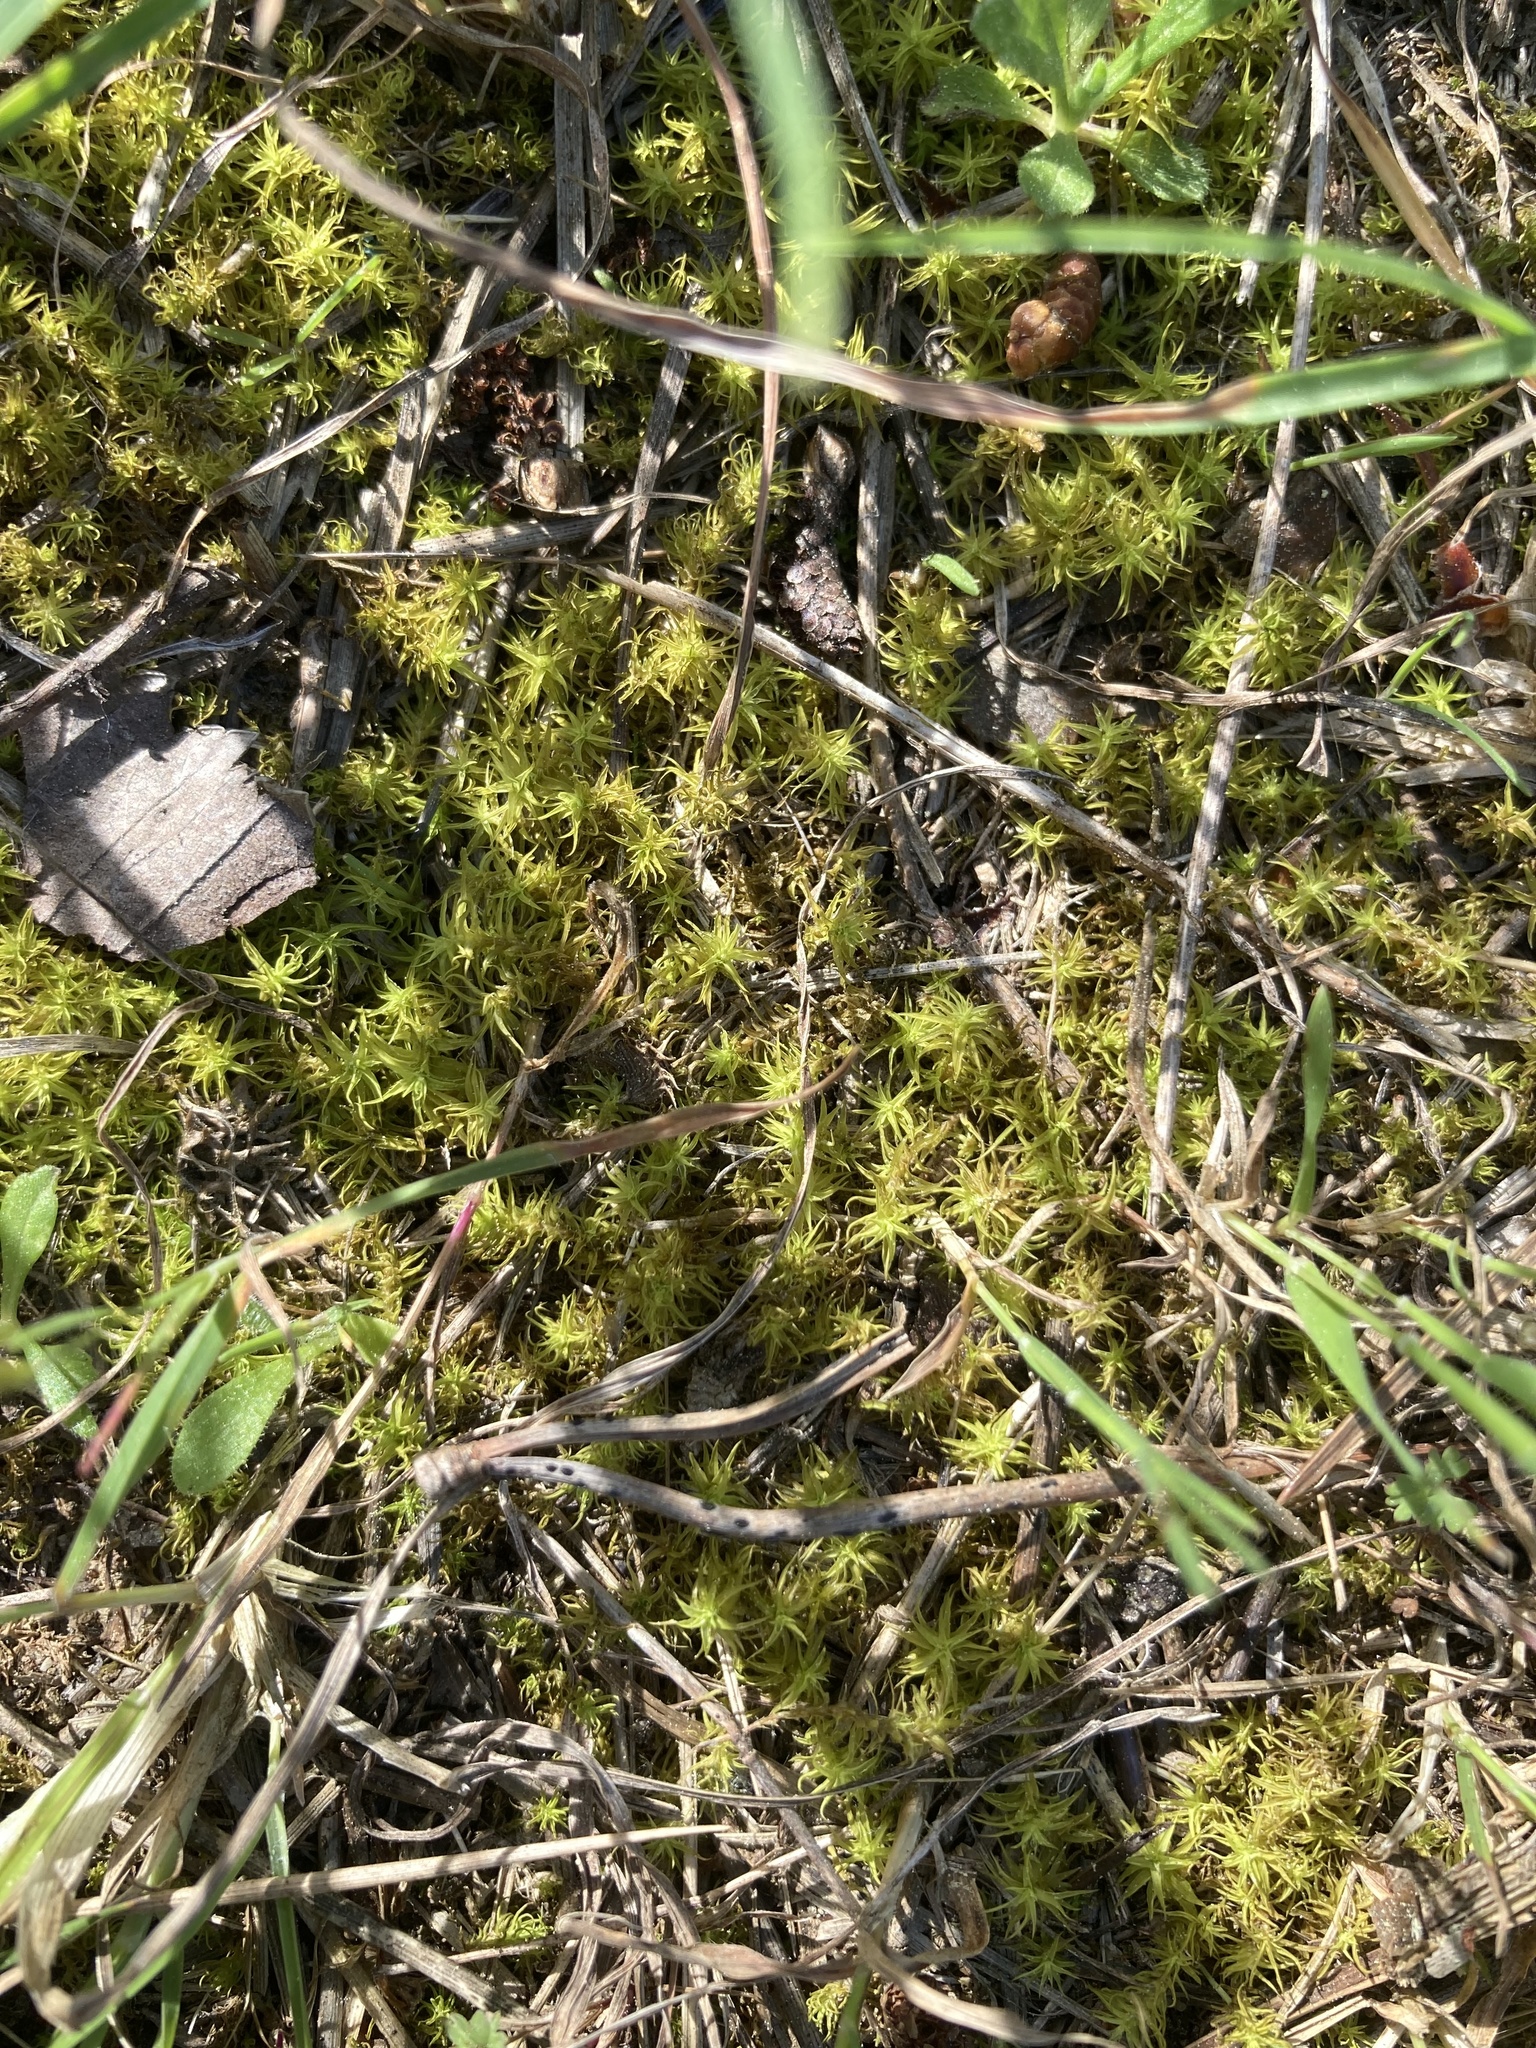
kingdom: Plantae
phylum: Bryophyta
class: Bryopsida
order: Pottiales
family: Pottiaceae
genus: Pleurochaete
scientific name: Pleurochaete squarrosa
